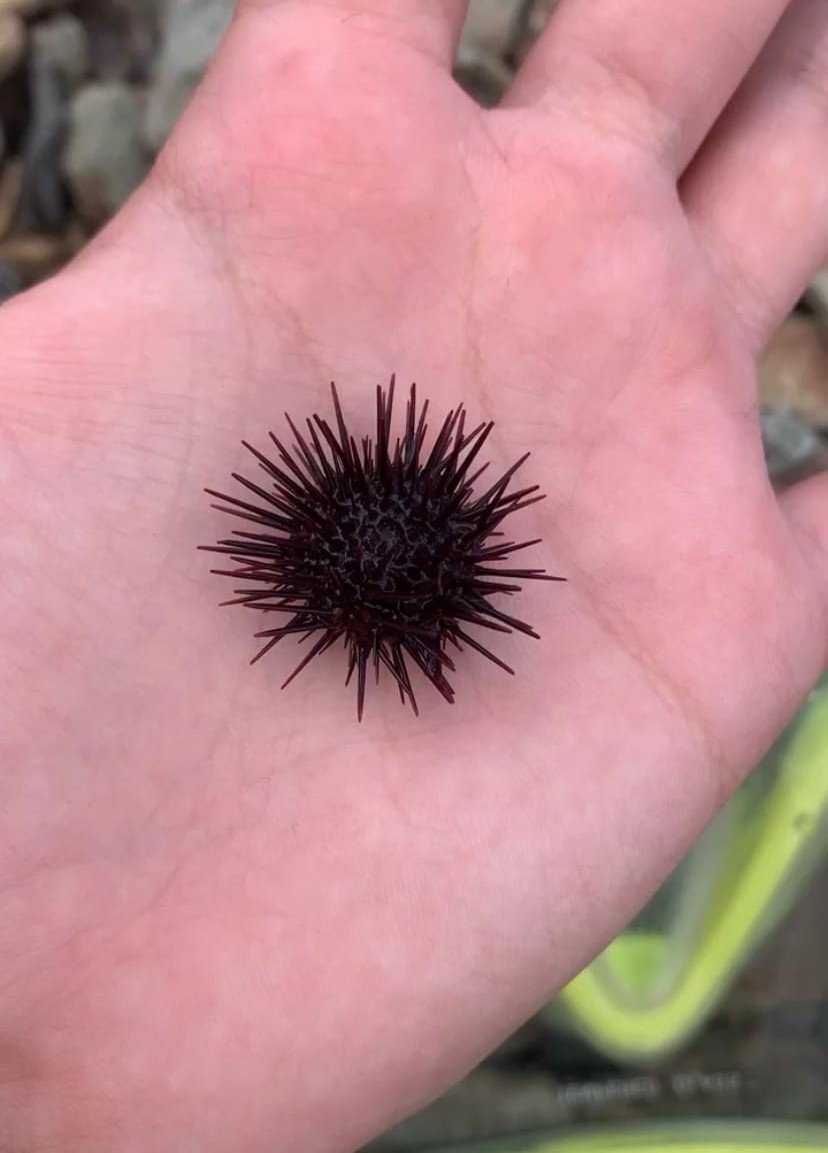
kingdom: Animalia
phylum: Echinodermata
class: Echinoidea
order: Camarodonta
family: Strongylocentrotidae
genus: Mesocentrotus
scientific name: Mesocentrotus nudus
